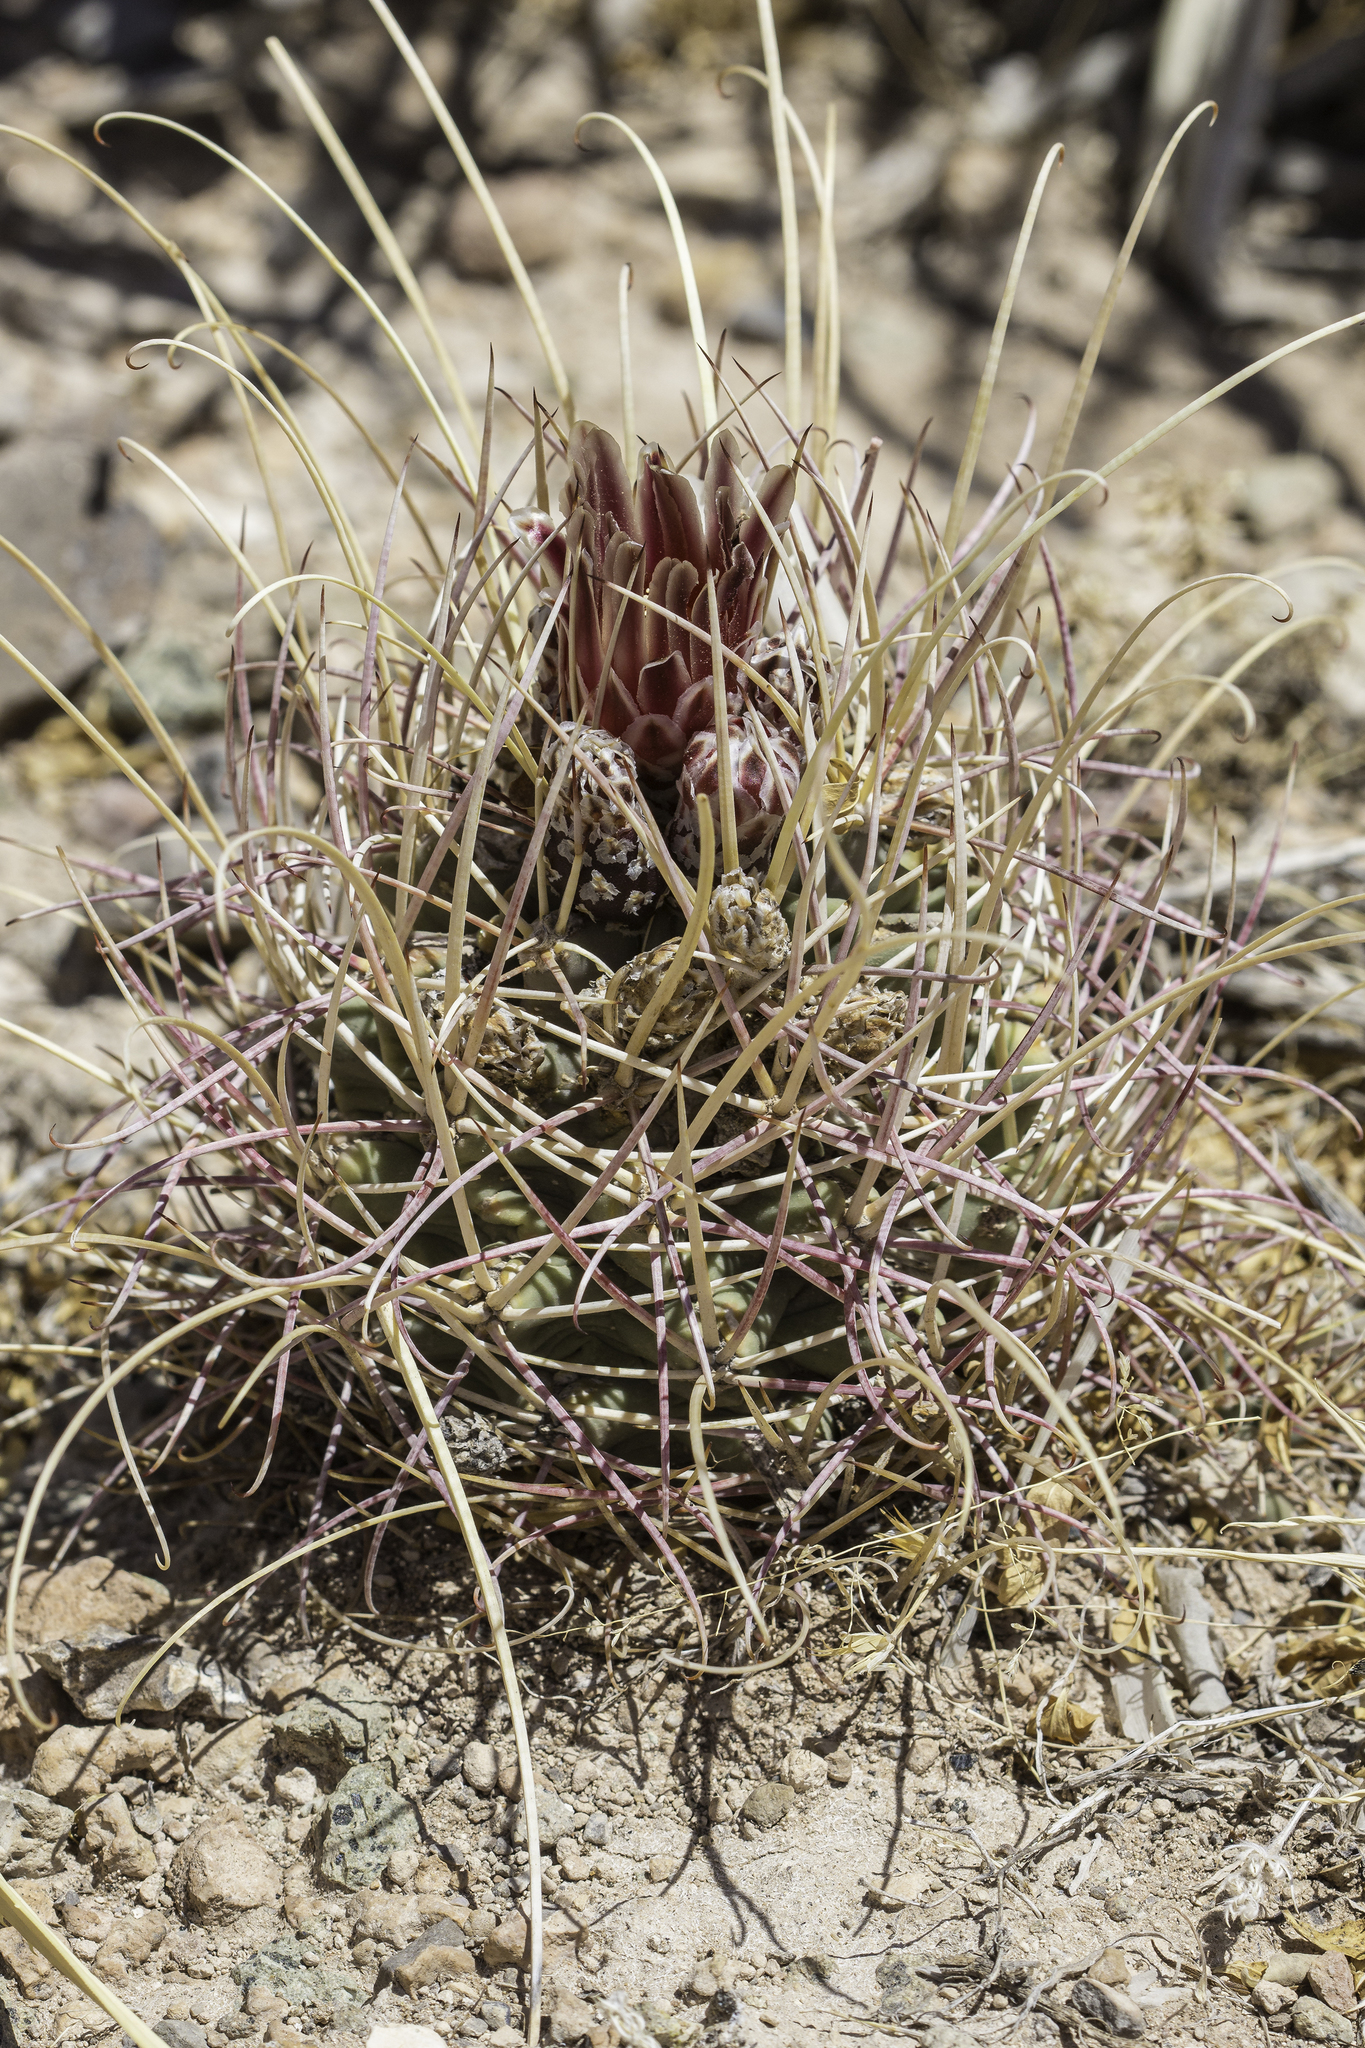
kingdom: Plantae
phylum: Tracheophyta
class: Magnoliopsida
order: Caryophyllales
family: Cactaceae
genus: Ferocactus
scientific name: Ferocactus uncinatus
